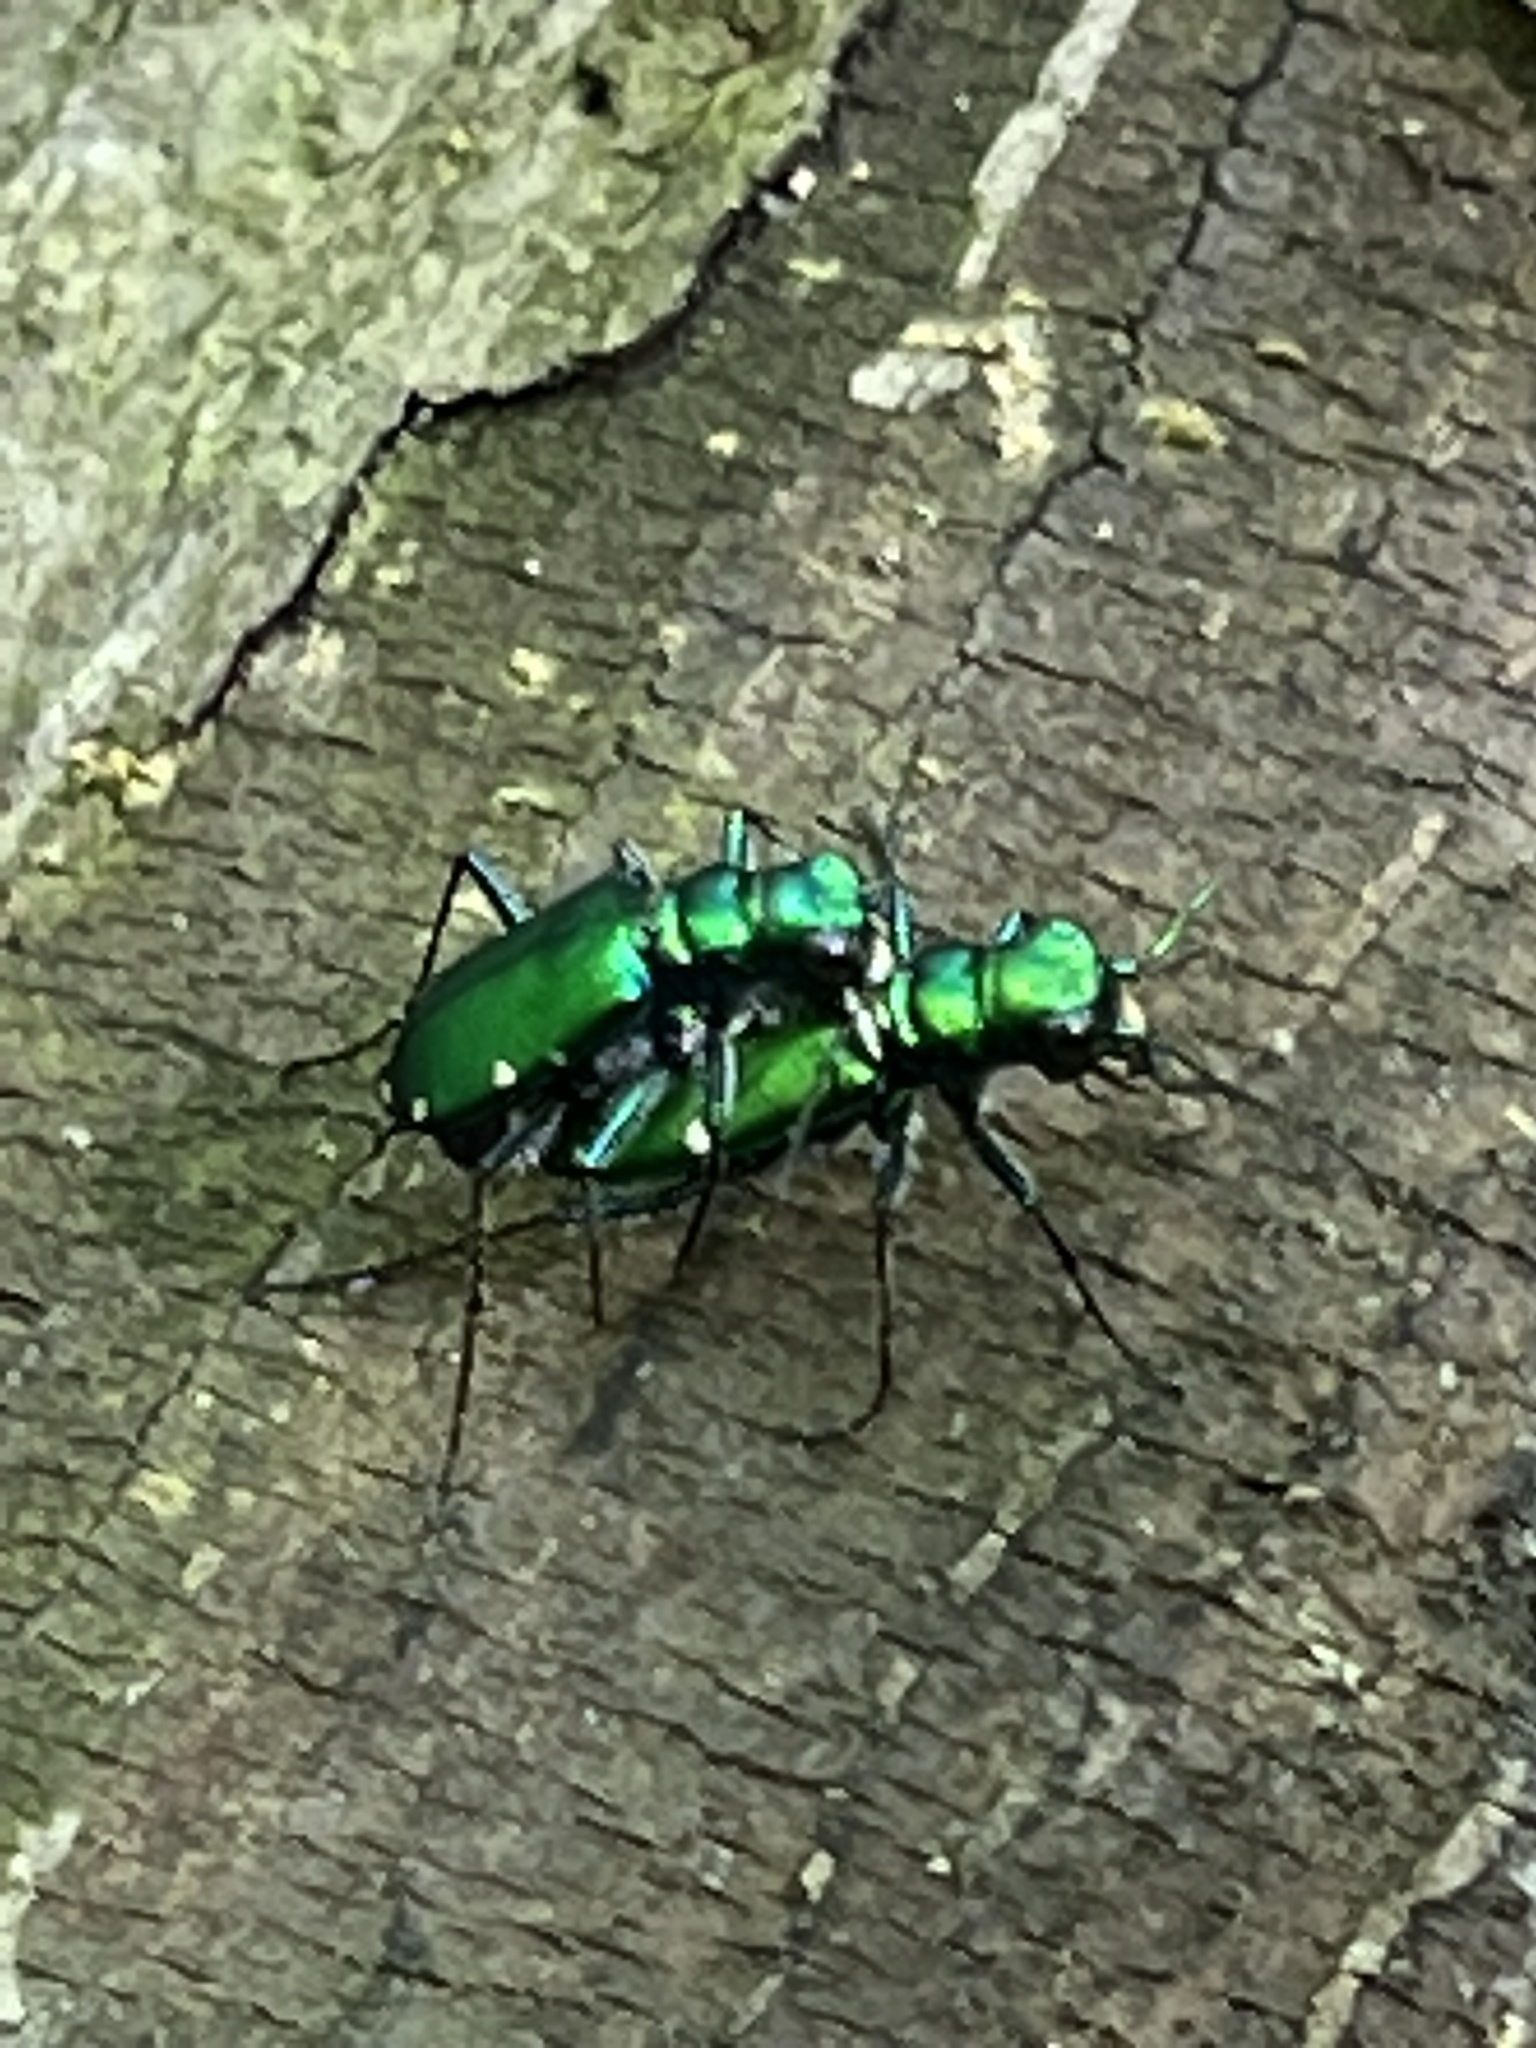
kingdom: Animalia
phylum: Arthropoda
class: Insecta
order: Coleoptera
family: Carabidae
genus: Cicindela
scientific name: Cicindela sexguttata
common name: Six-spotted tiger beetle
